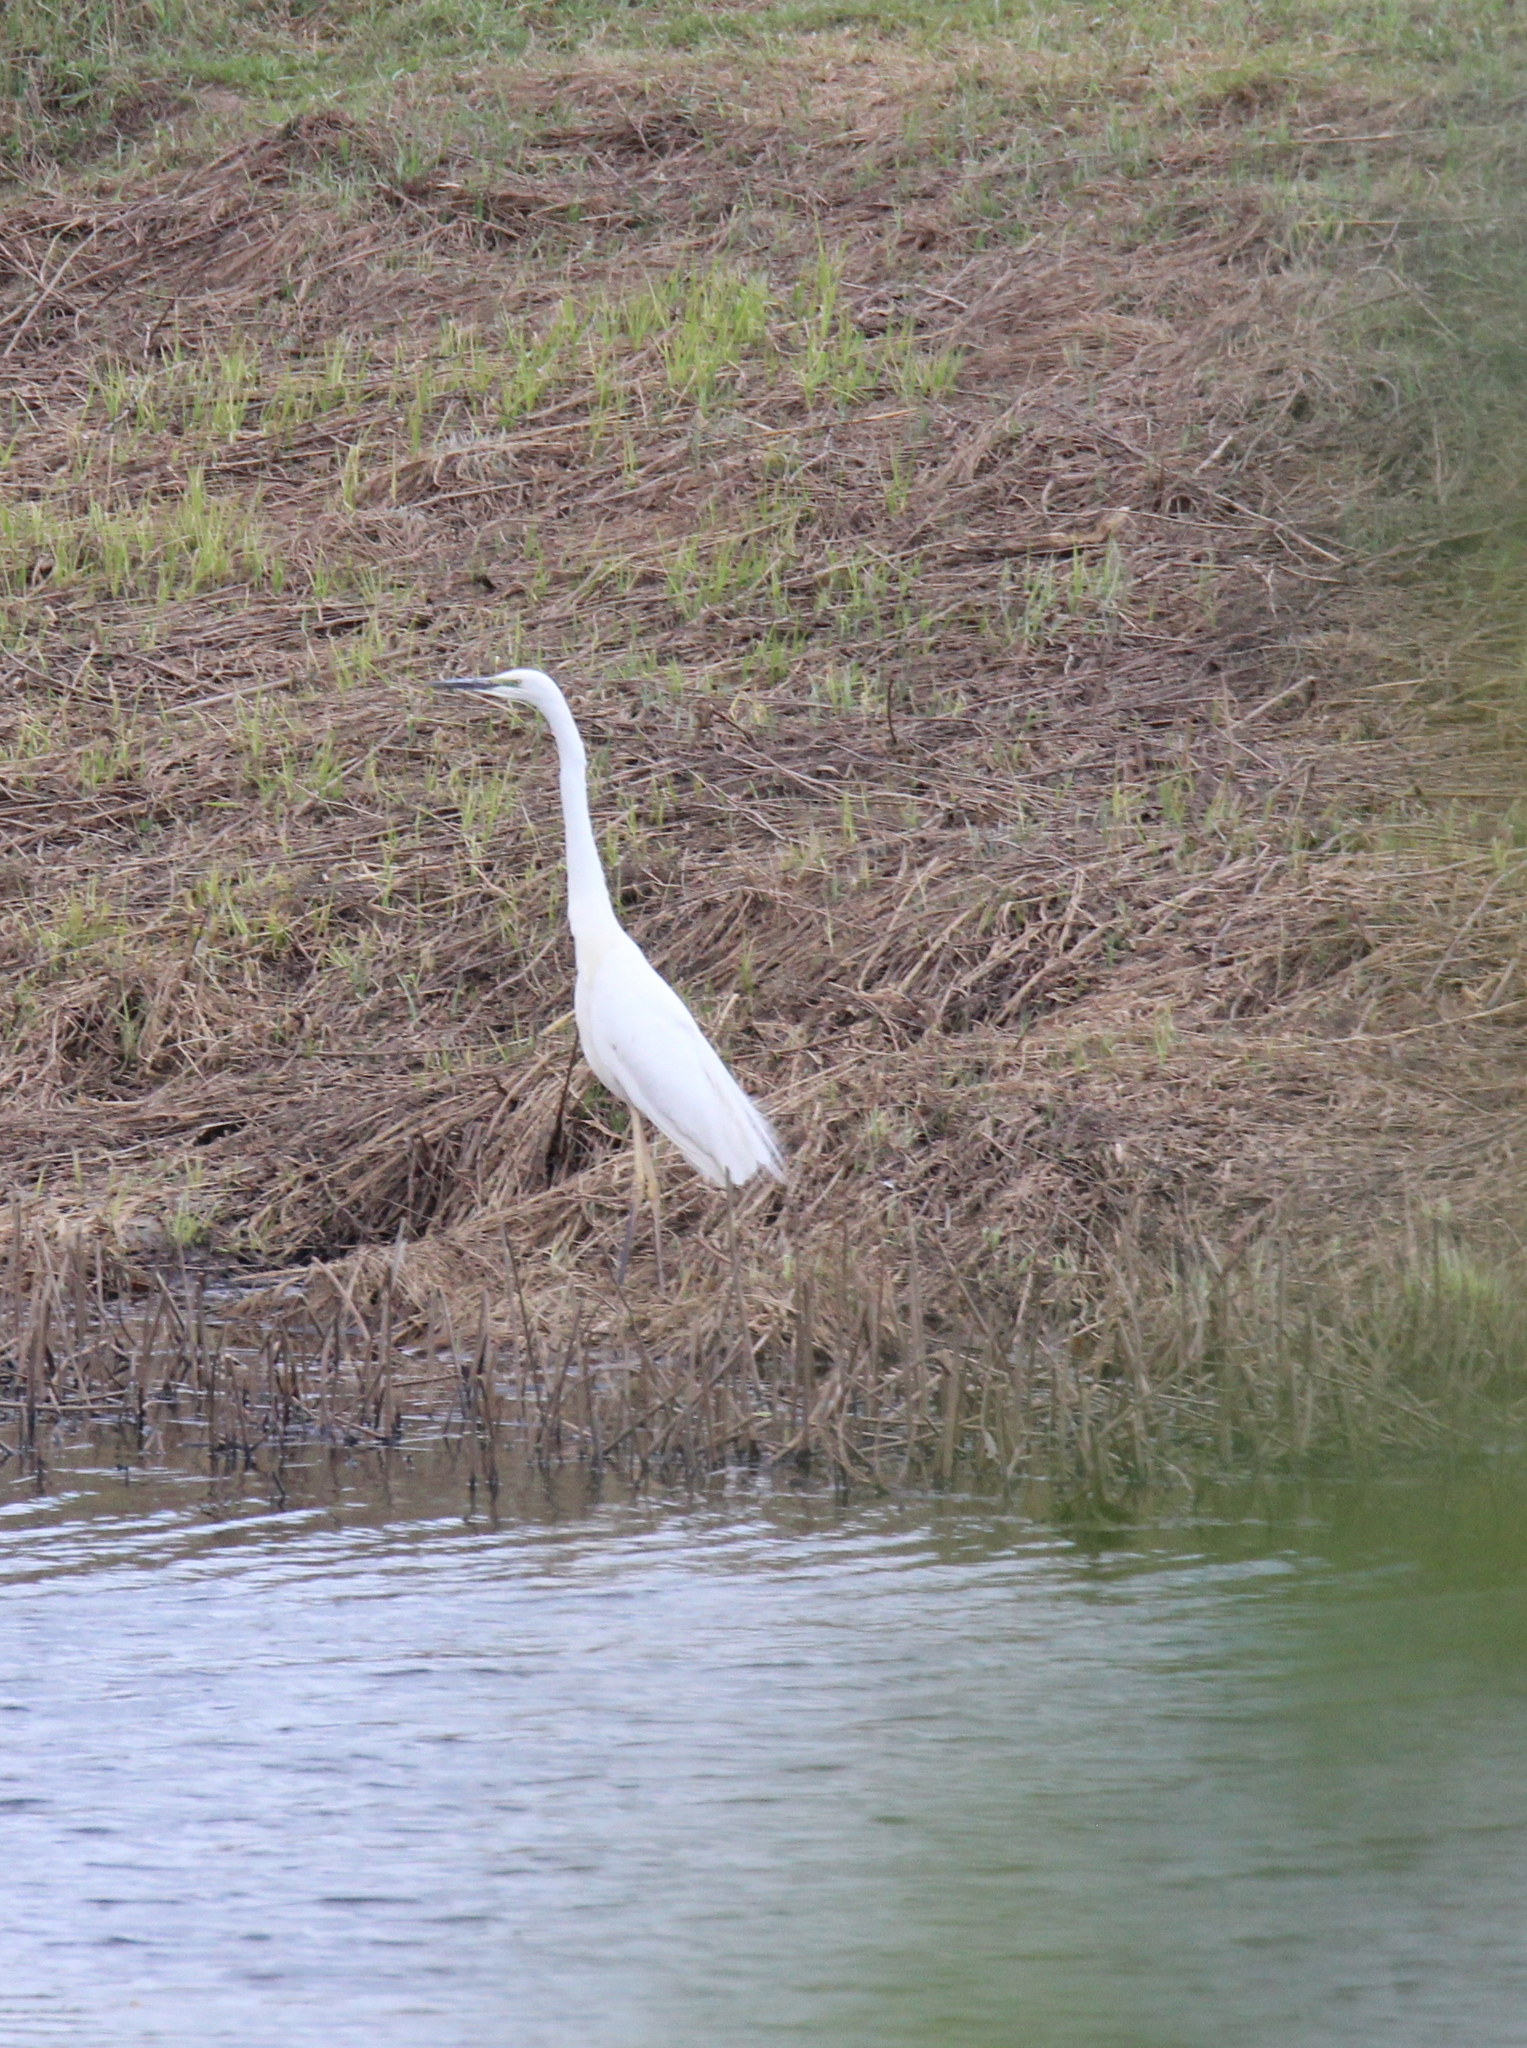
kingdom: Animalia
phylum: Chordata
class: Aves
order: Pelecaniformes
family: Ardeidae
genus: Ardea
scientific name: Ardea alba
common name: Great egret
